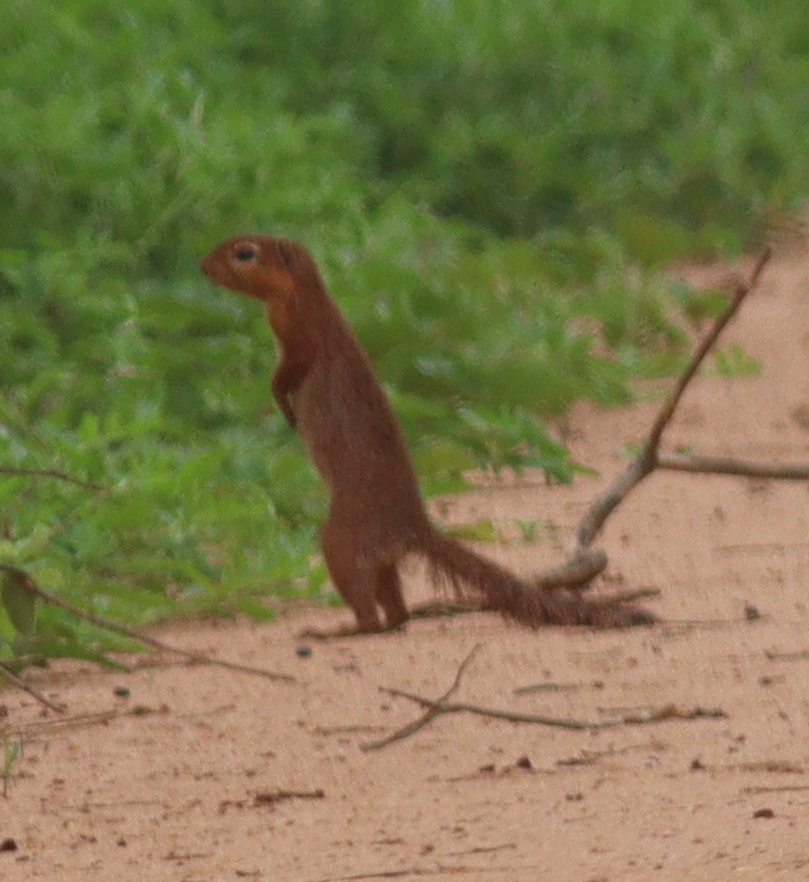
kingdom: Animalia
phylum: Chordata
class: Mammalia
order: Rodentia
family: Sciuridae
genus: Xerus
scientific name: Xerus rutilus
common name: Unstriped ground squirrel
